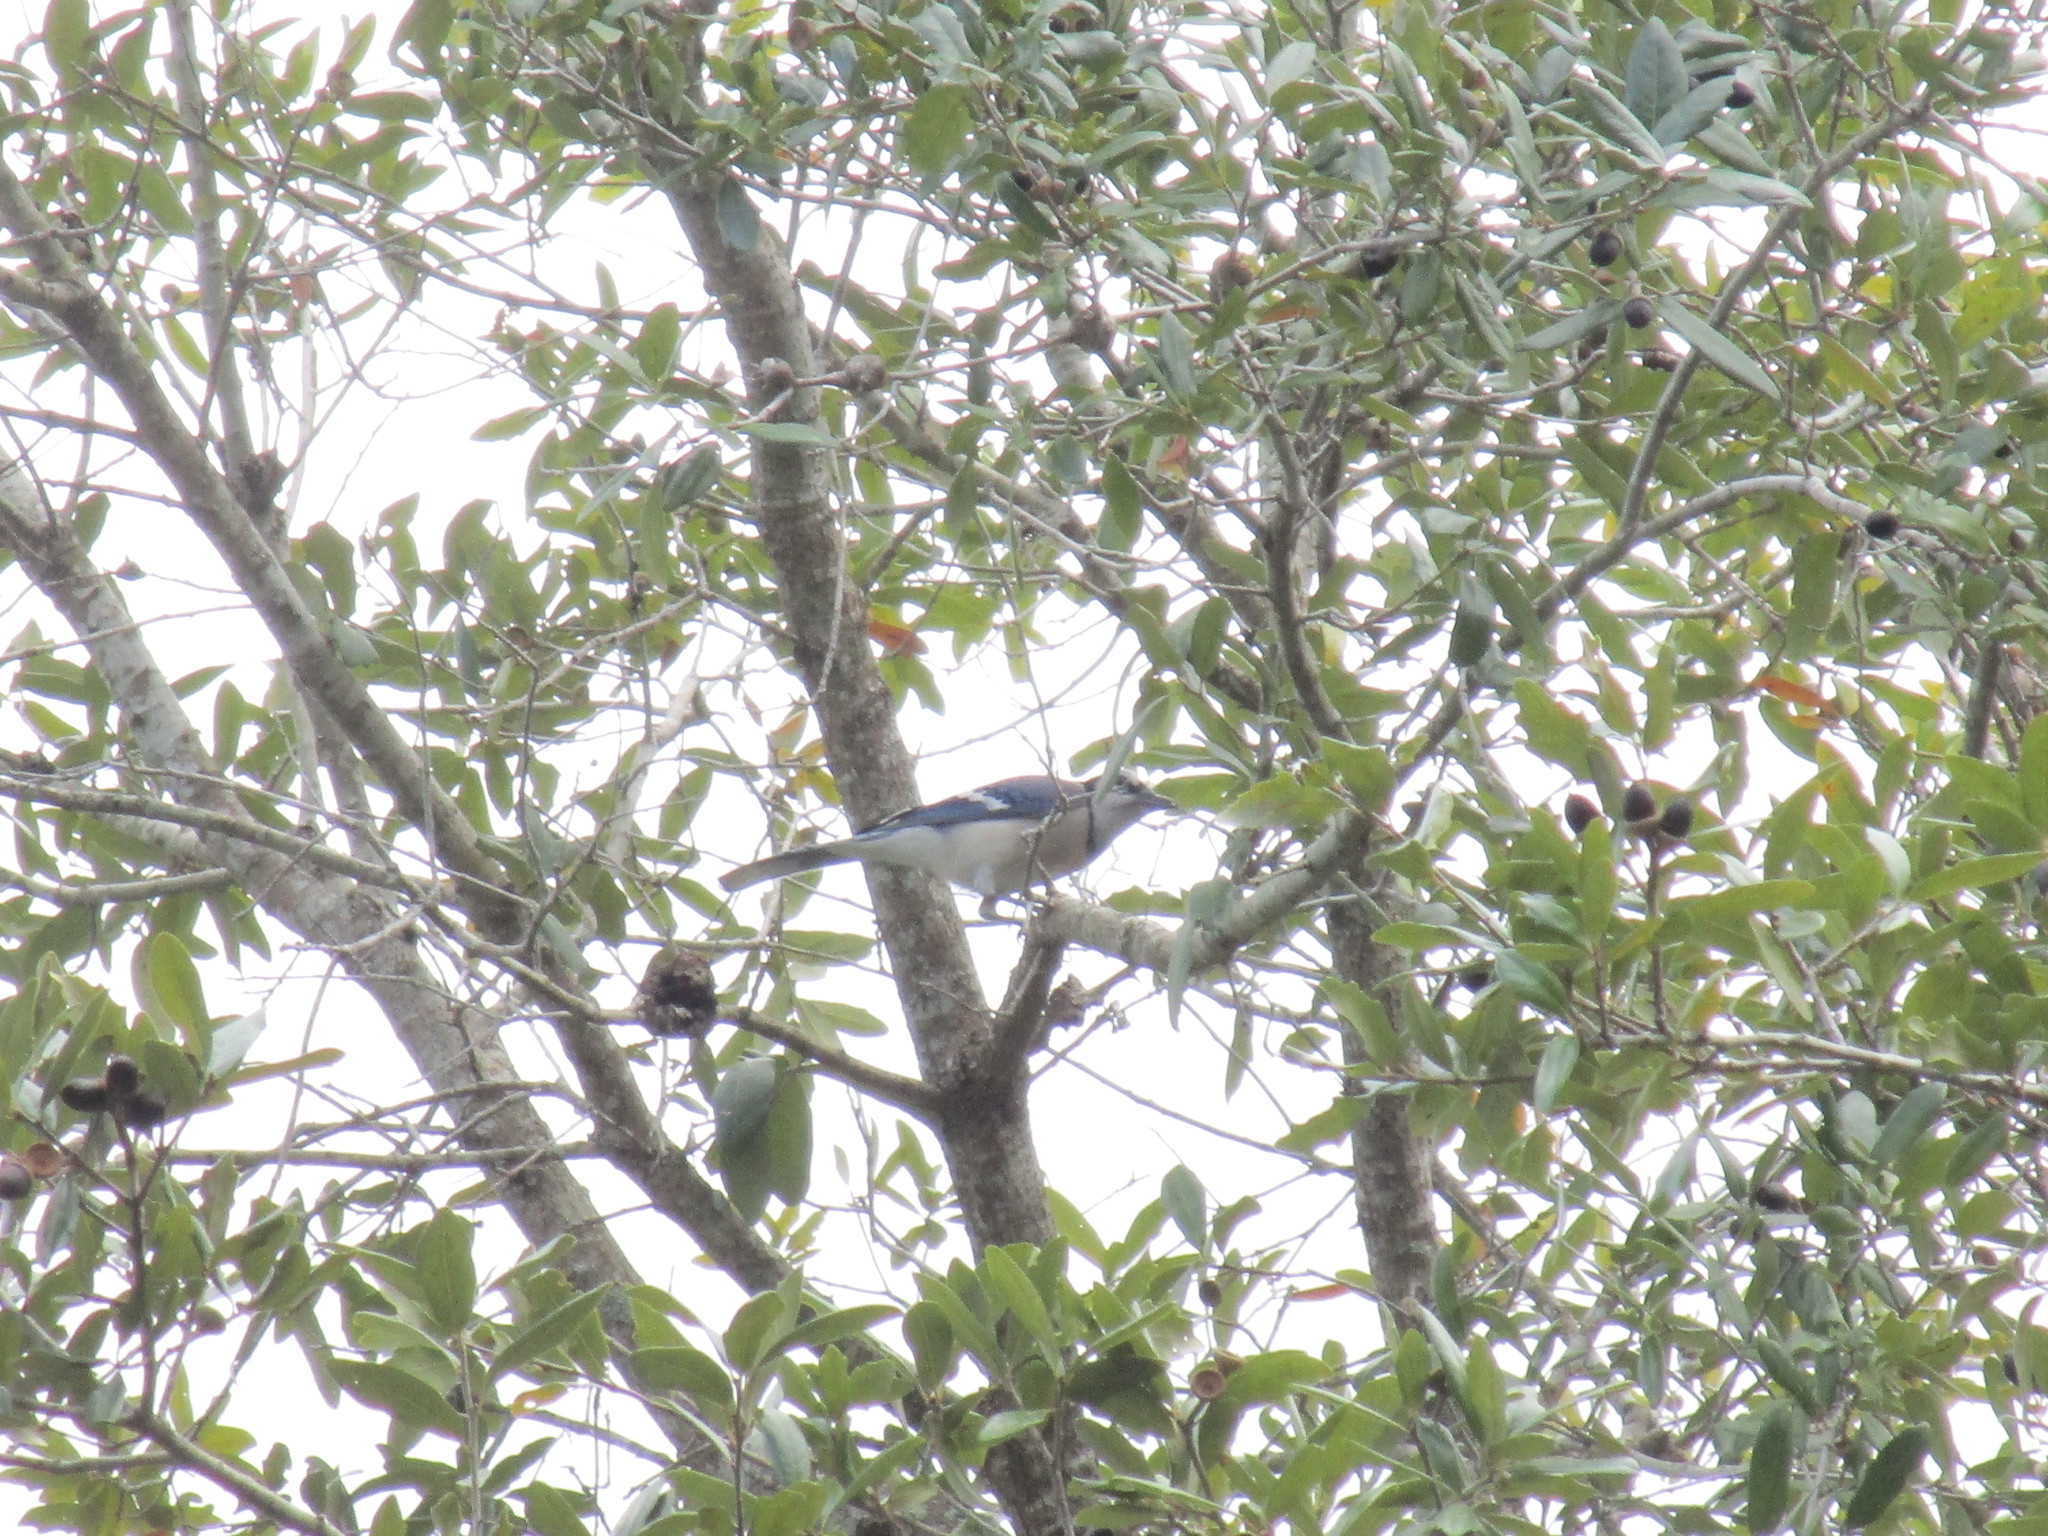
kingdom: Animalia
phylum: Chordata
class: Aves
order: Passeriformes
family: Corvidae
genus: Cyanocitta
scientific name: Cyanocitta cristata
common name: Blue jay
